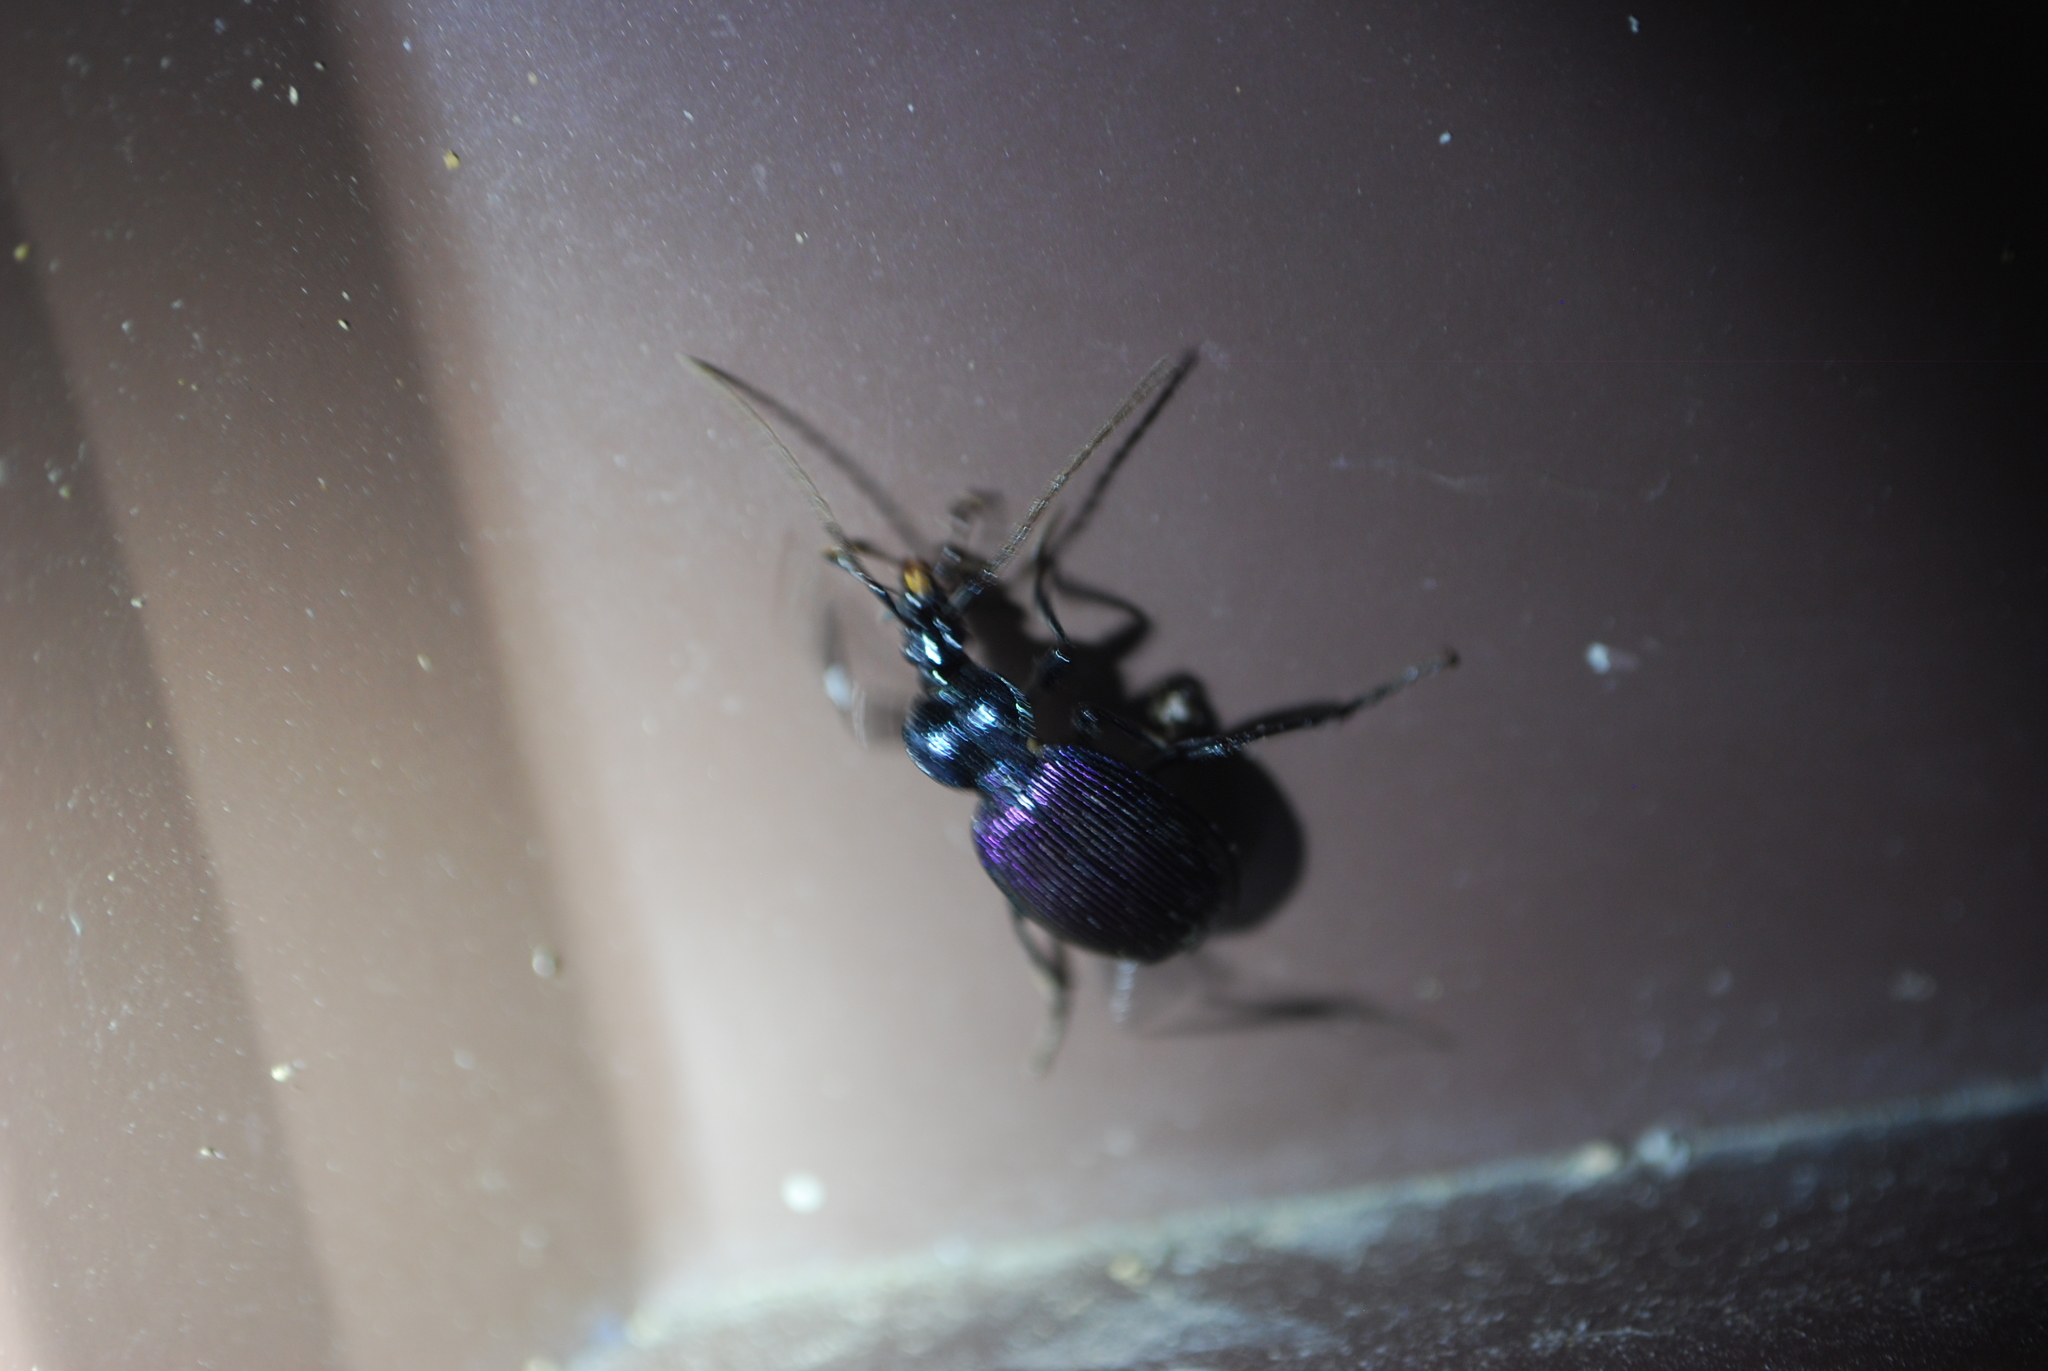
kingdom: Animalia
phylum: Arthropoda
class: Insecta
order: Coleoptera
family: Carabidae
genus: Scaphinotus
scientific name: Scaphinotus cavicollis
